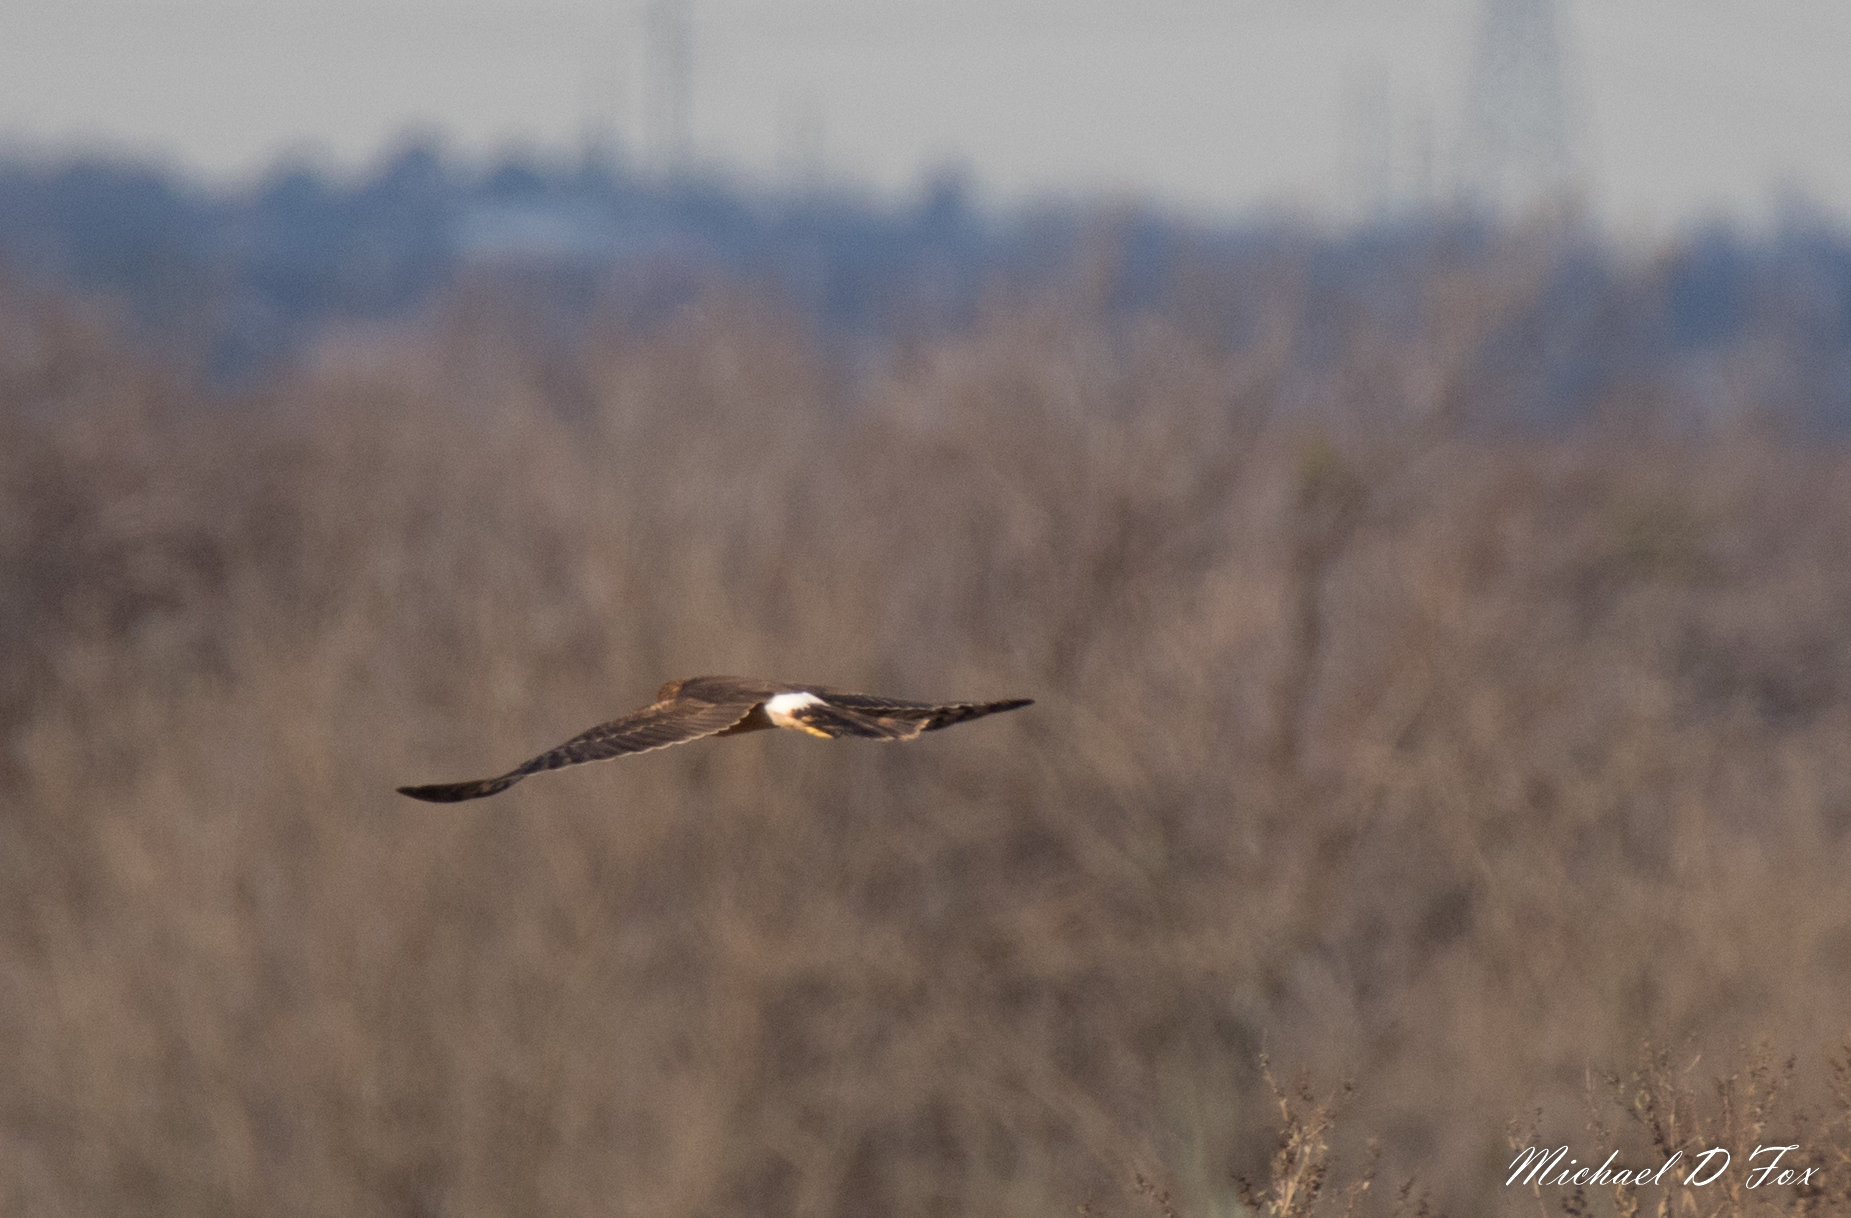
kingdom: Animalia
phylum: Chordata
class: Aves
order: Accipitriformes
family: Accipitridae
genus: Circus
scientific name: Circus cyaneus
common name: Hen harrier
